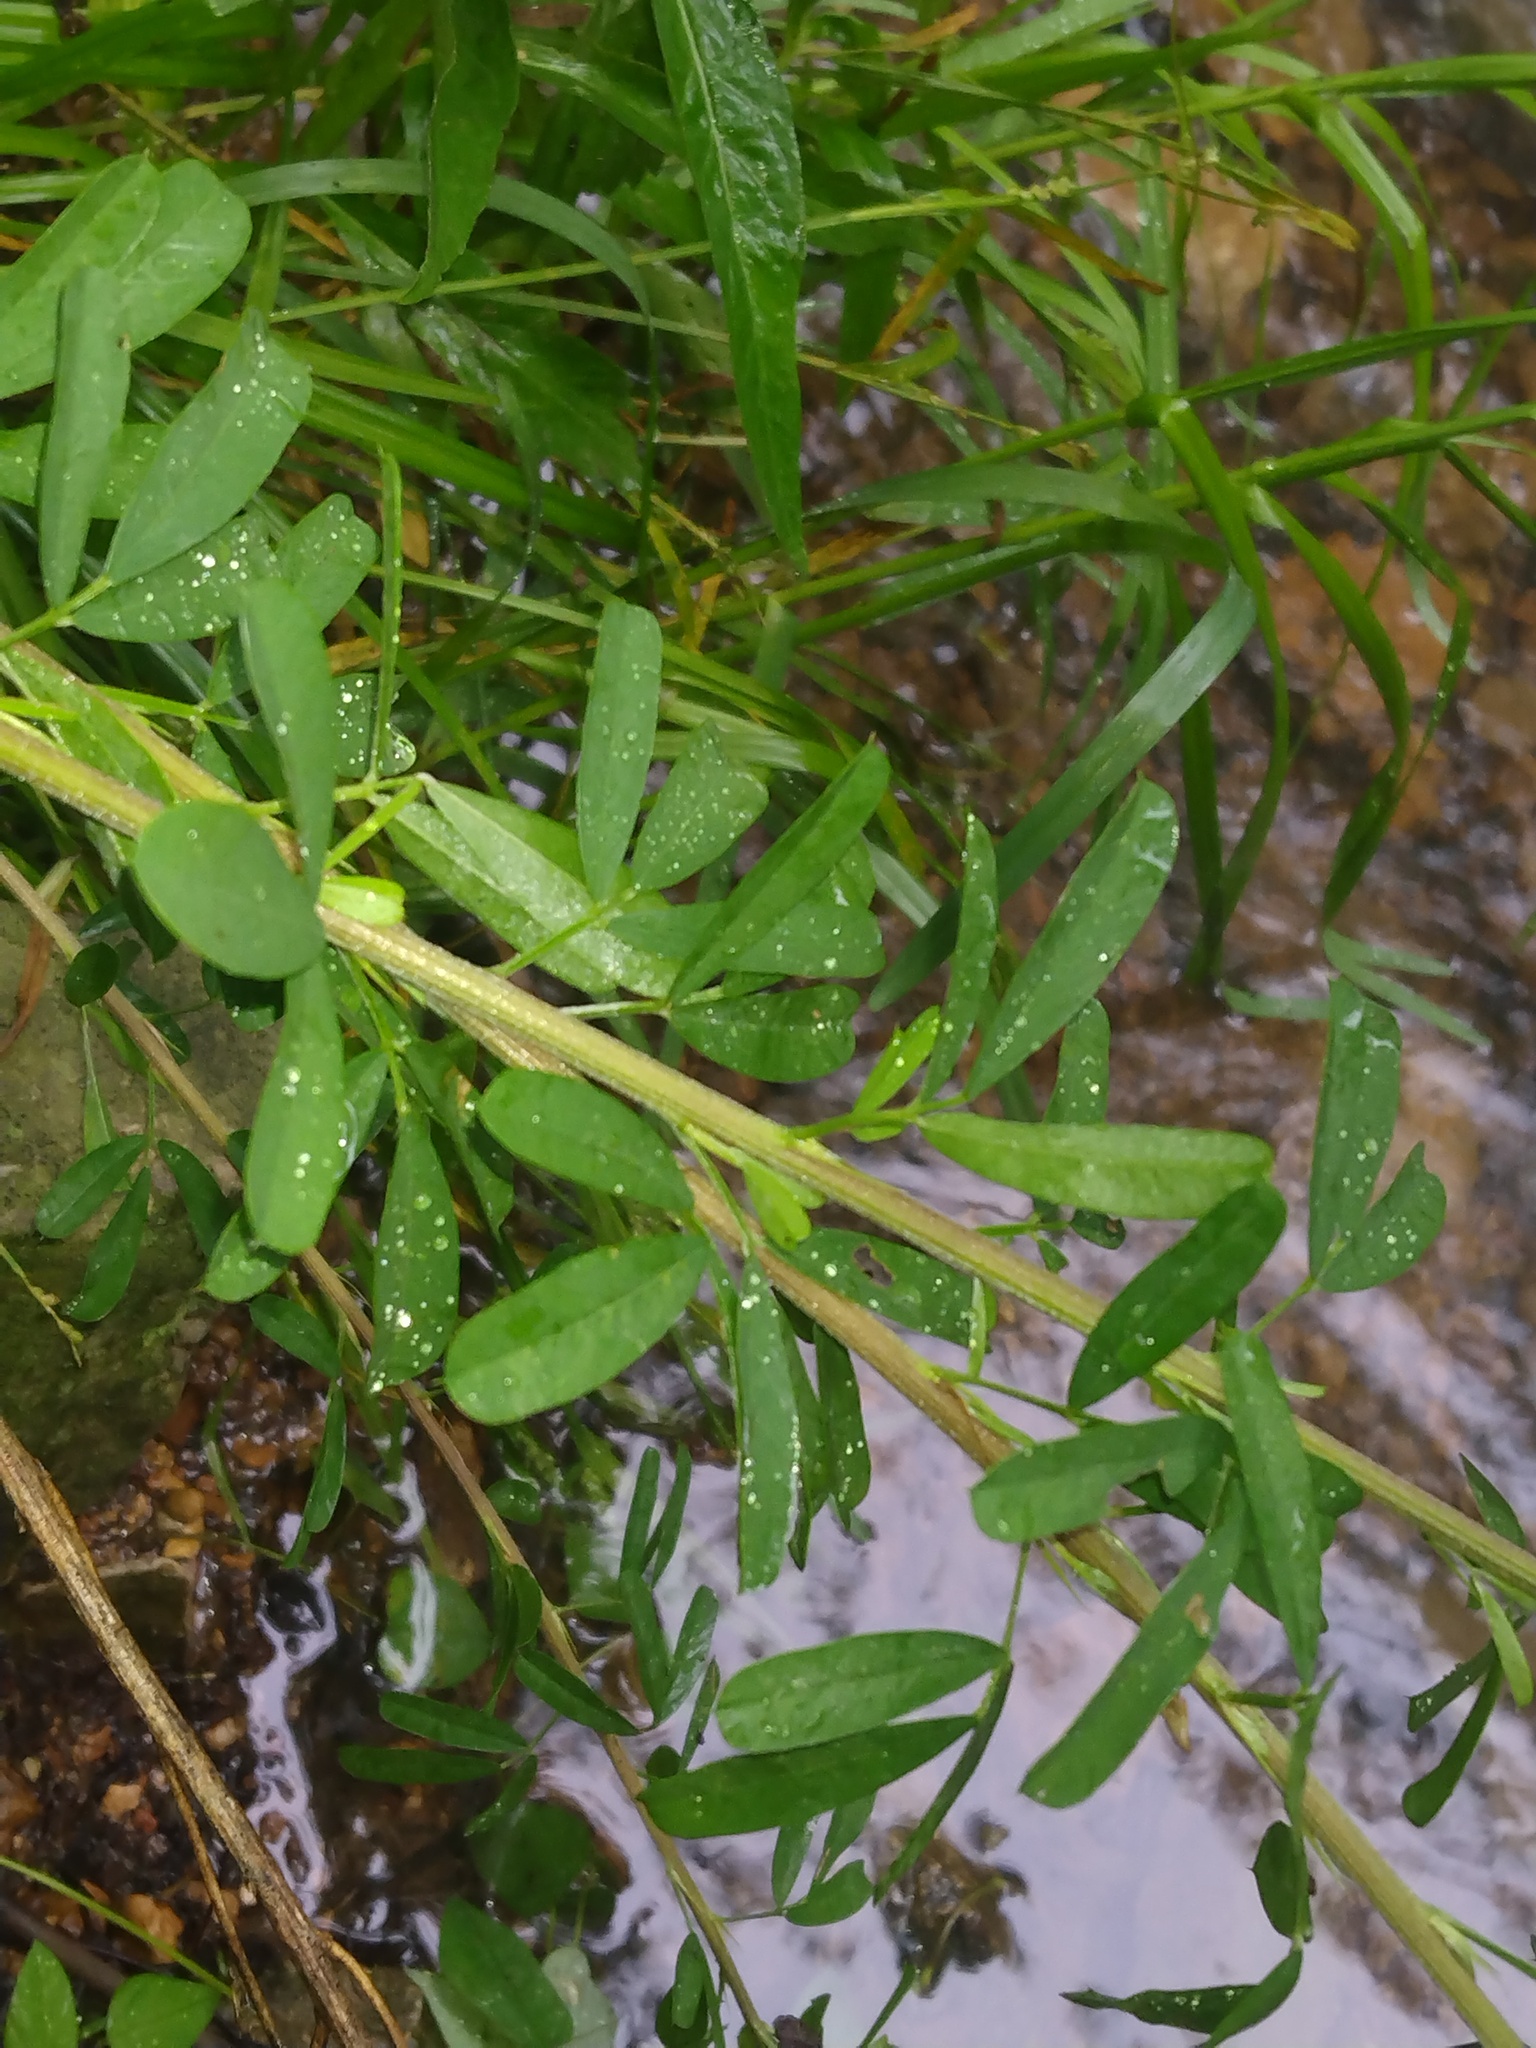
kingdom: Plantae
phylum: Tracheophyta
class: Magnoliopsida
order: Fabales
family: Fabaceae
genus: Lespedeza
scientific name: Lespedeza cuneata
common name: Chinese bush-clover
